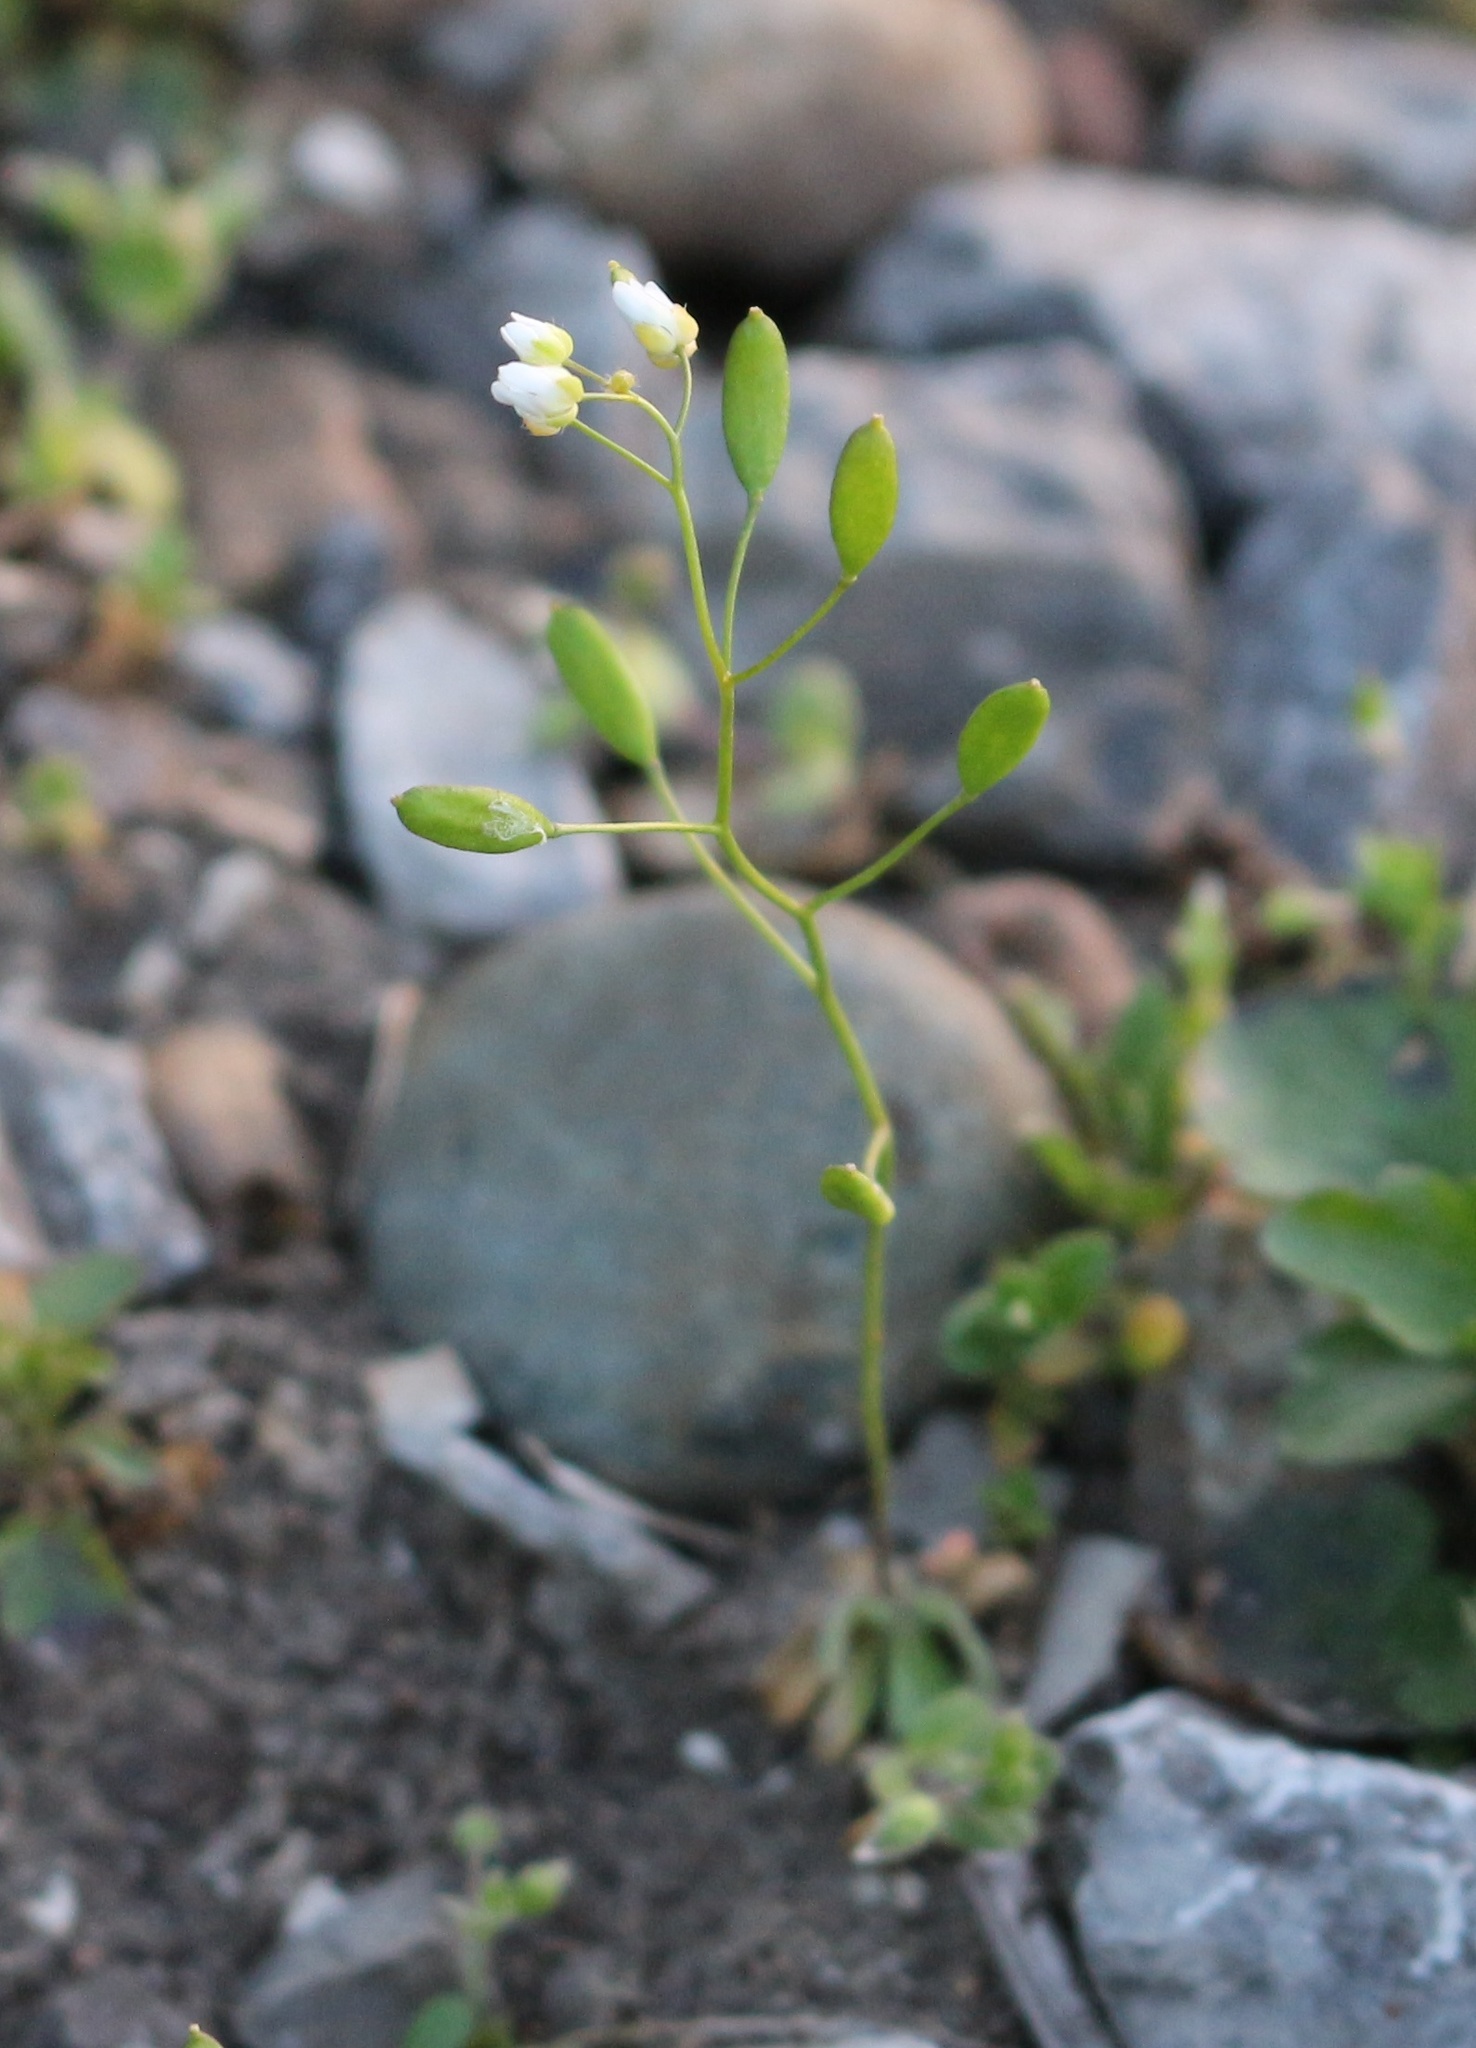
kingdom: Plantae
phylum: Tracheophyta
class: Magnoliopsida
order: Brassicales
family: Brassicaceae
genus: Draba
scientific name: Draba verna
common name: Spring draba
